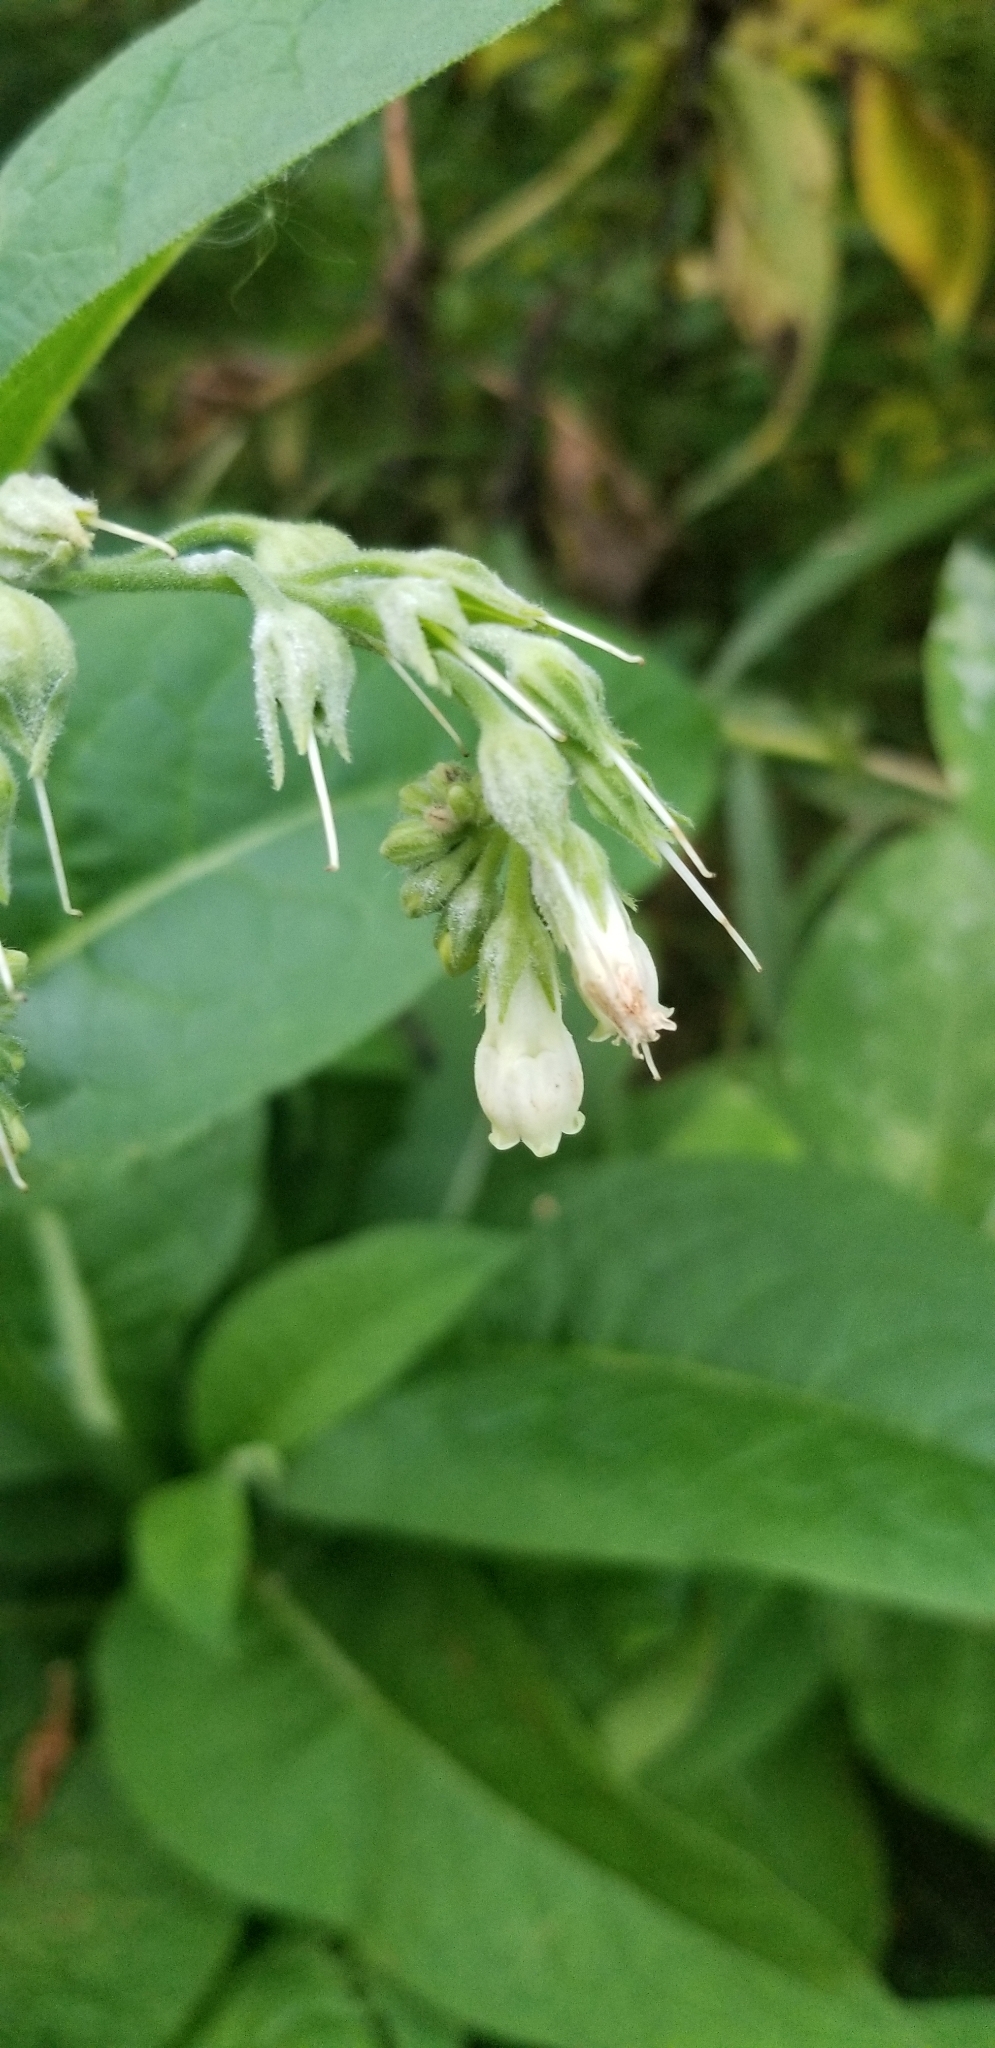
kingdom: Plantae
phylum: Tracheophyta
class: Magnoliopsida
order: Boraginales
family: Boraginaceae
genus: Symphytum
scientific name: Symphytum officinale
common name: Common comfrey
